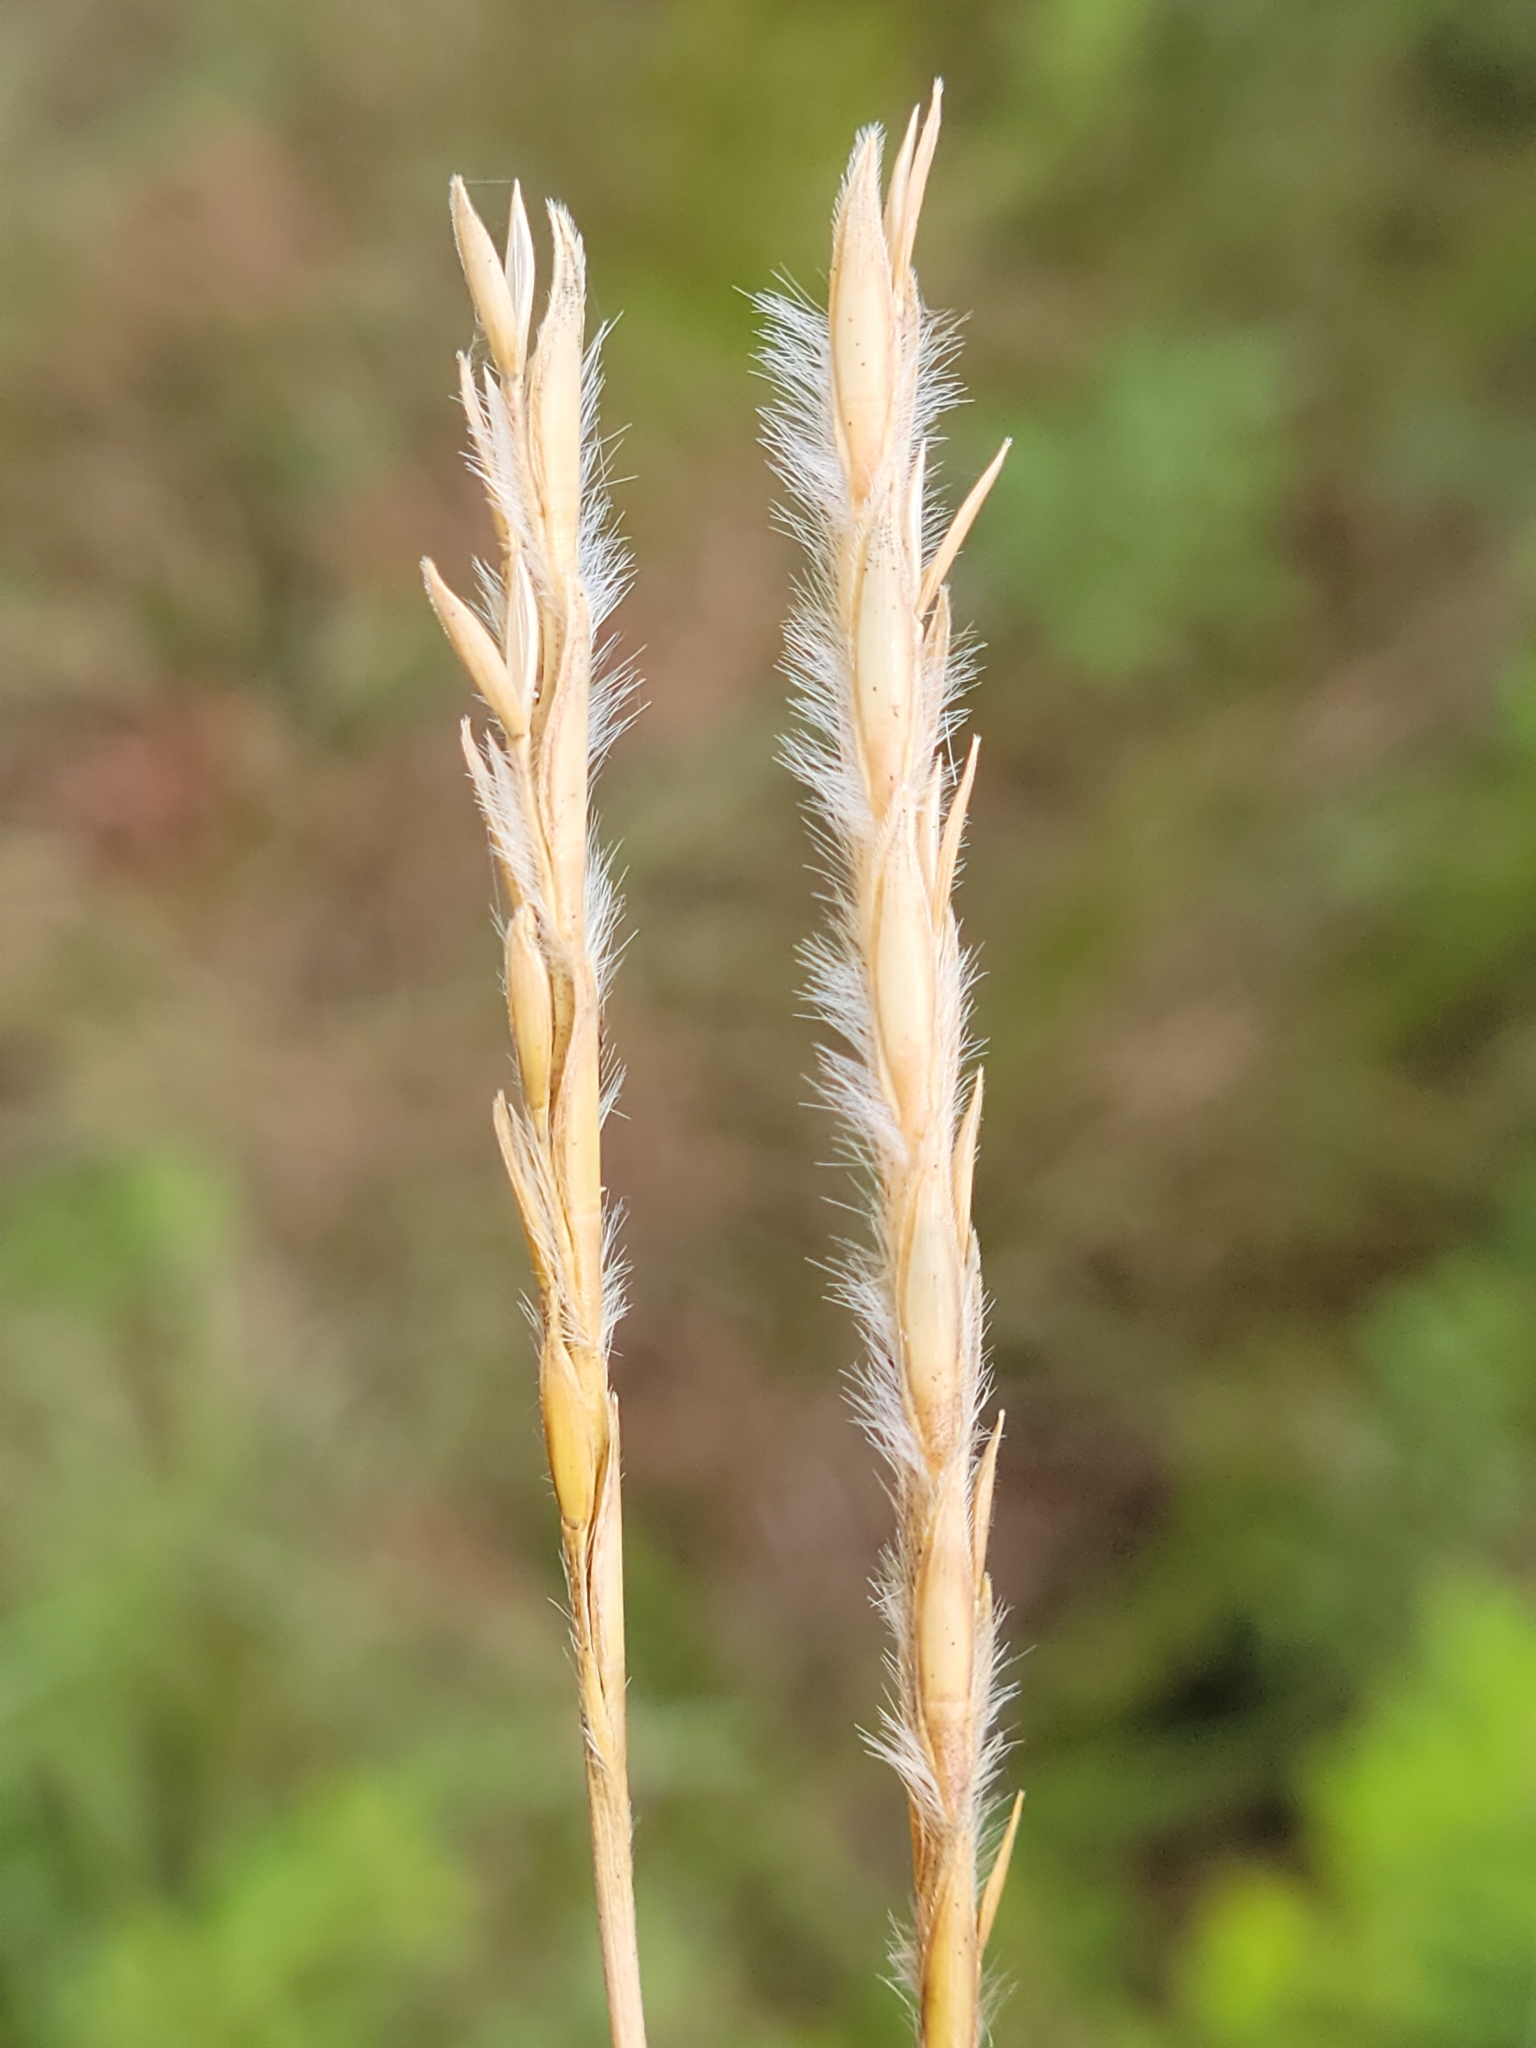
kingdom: Plantae
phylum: Tracheophyta
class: Liliopsida
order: Poales
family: Poaceae
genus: Elionurus
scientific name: Elionurus tripsacoides
